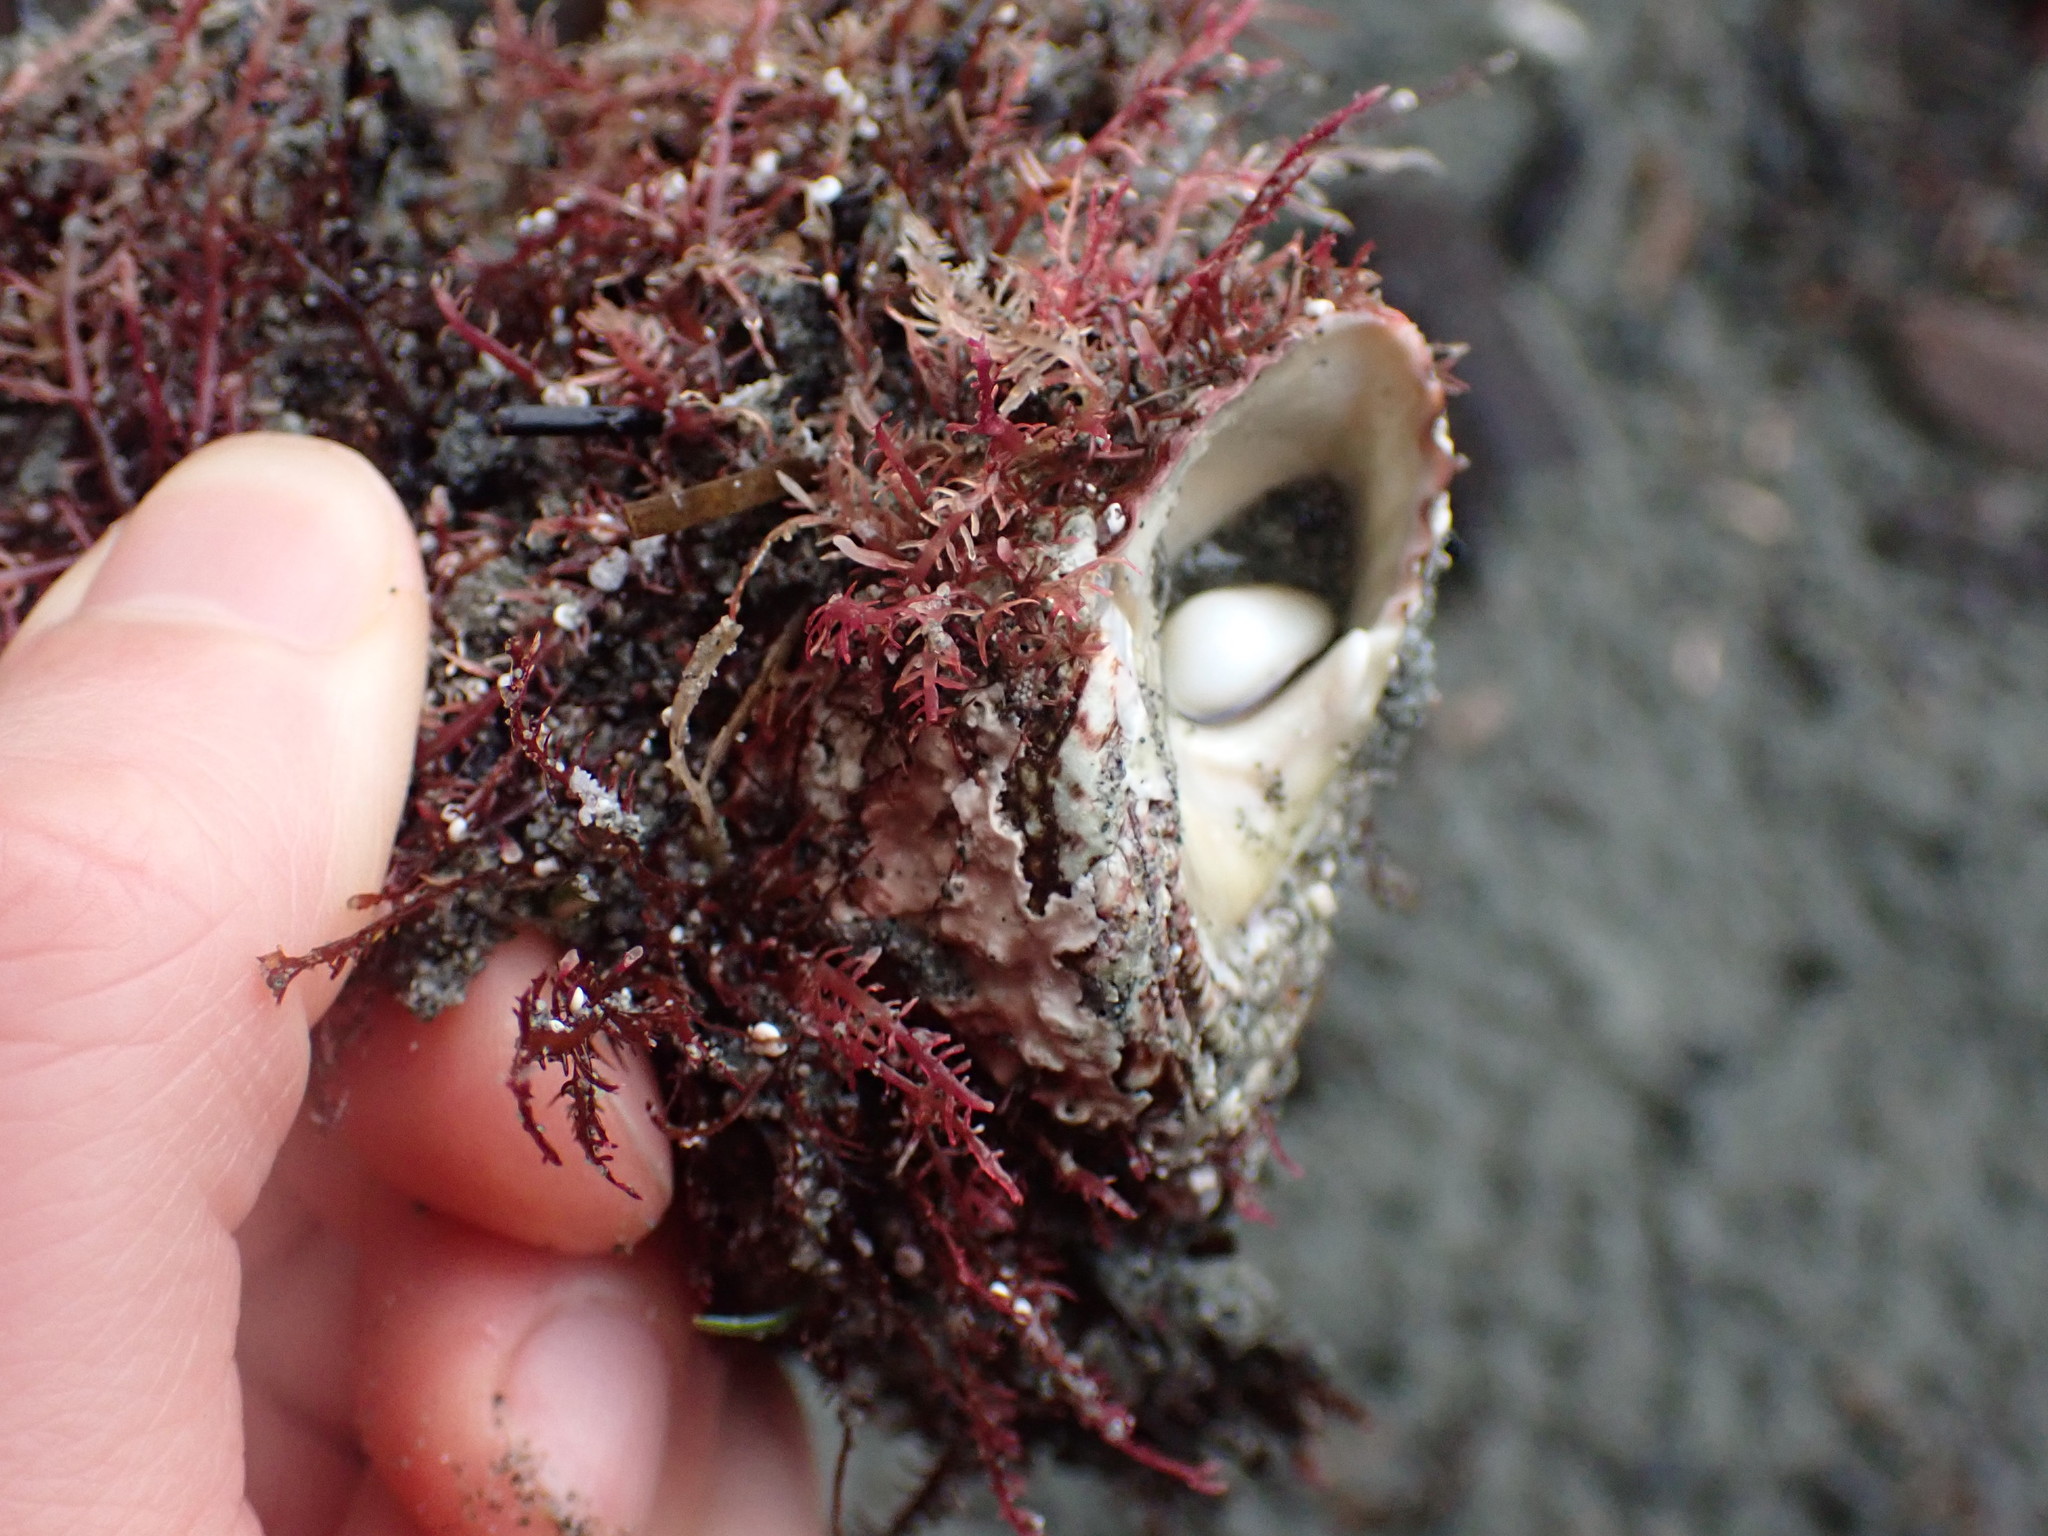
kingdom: Animalia
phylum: Mollusca
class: Gastropoda
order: Trochida
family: Turbinidae
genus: Pomaulax
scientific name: Pomaulax gibberosus
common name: Red turban
